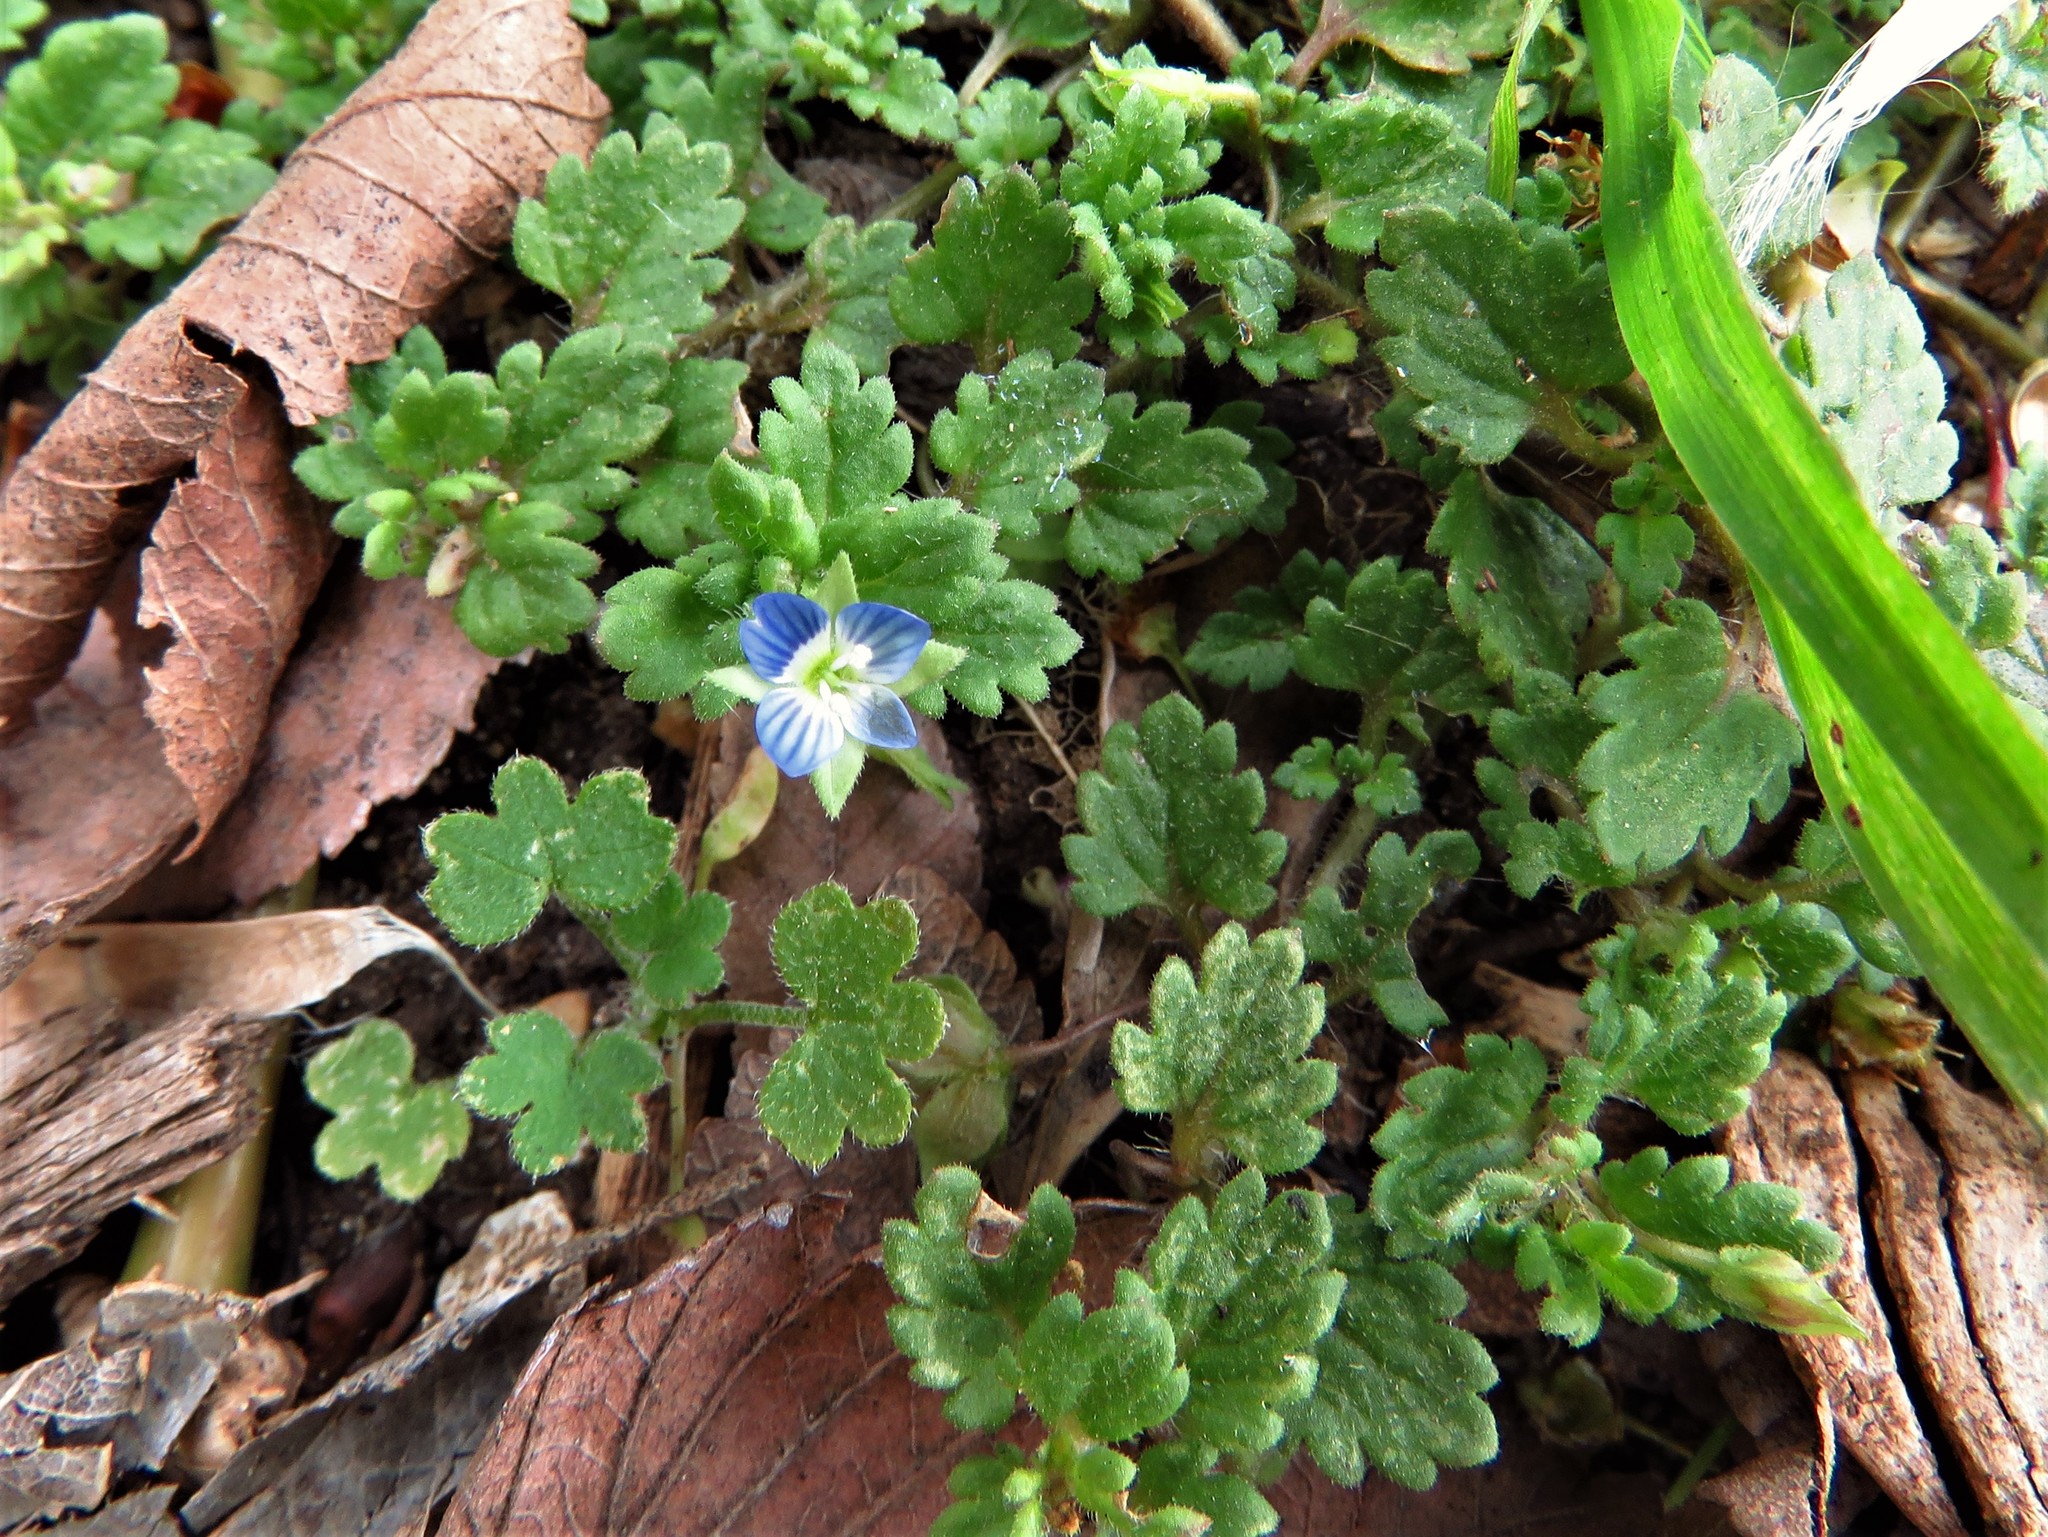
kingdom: Plantae
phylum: Tracheophyta
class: Magnoliopsida
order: Lamiales
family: Plantaginaceae
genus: Veronica
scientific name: Veronica polita
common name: Grey field-speedwell
